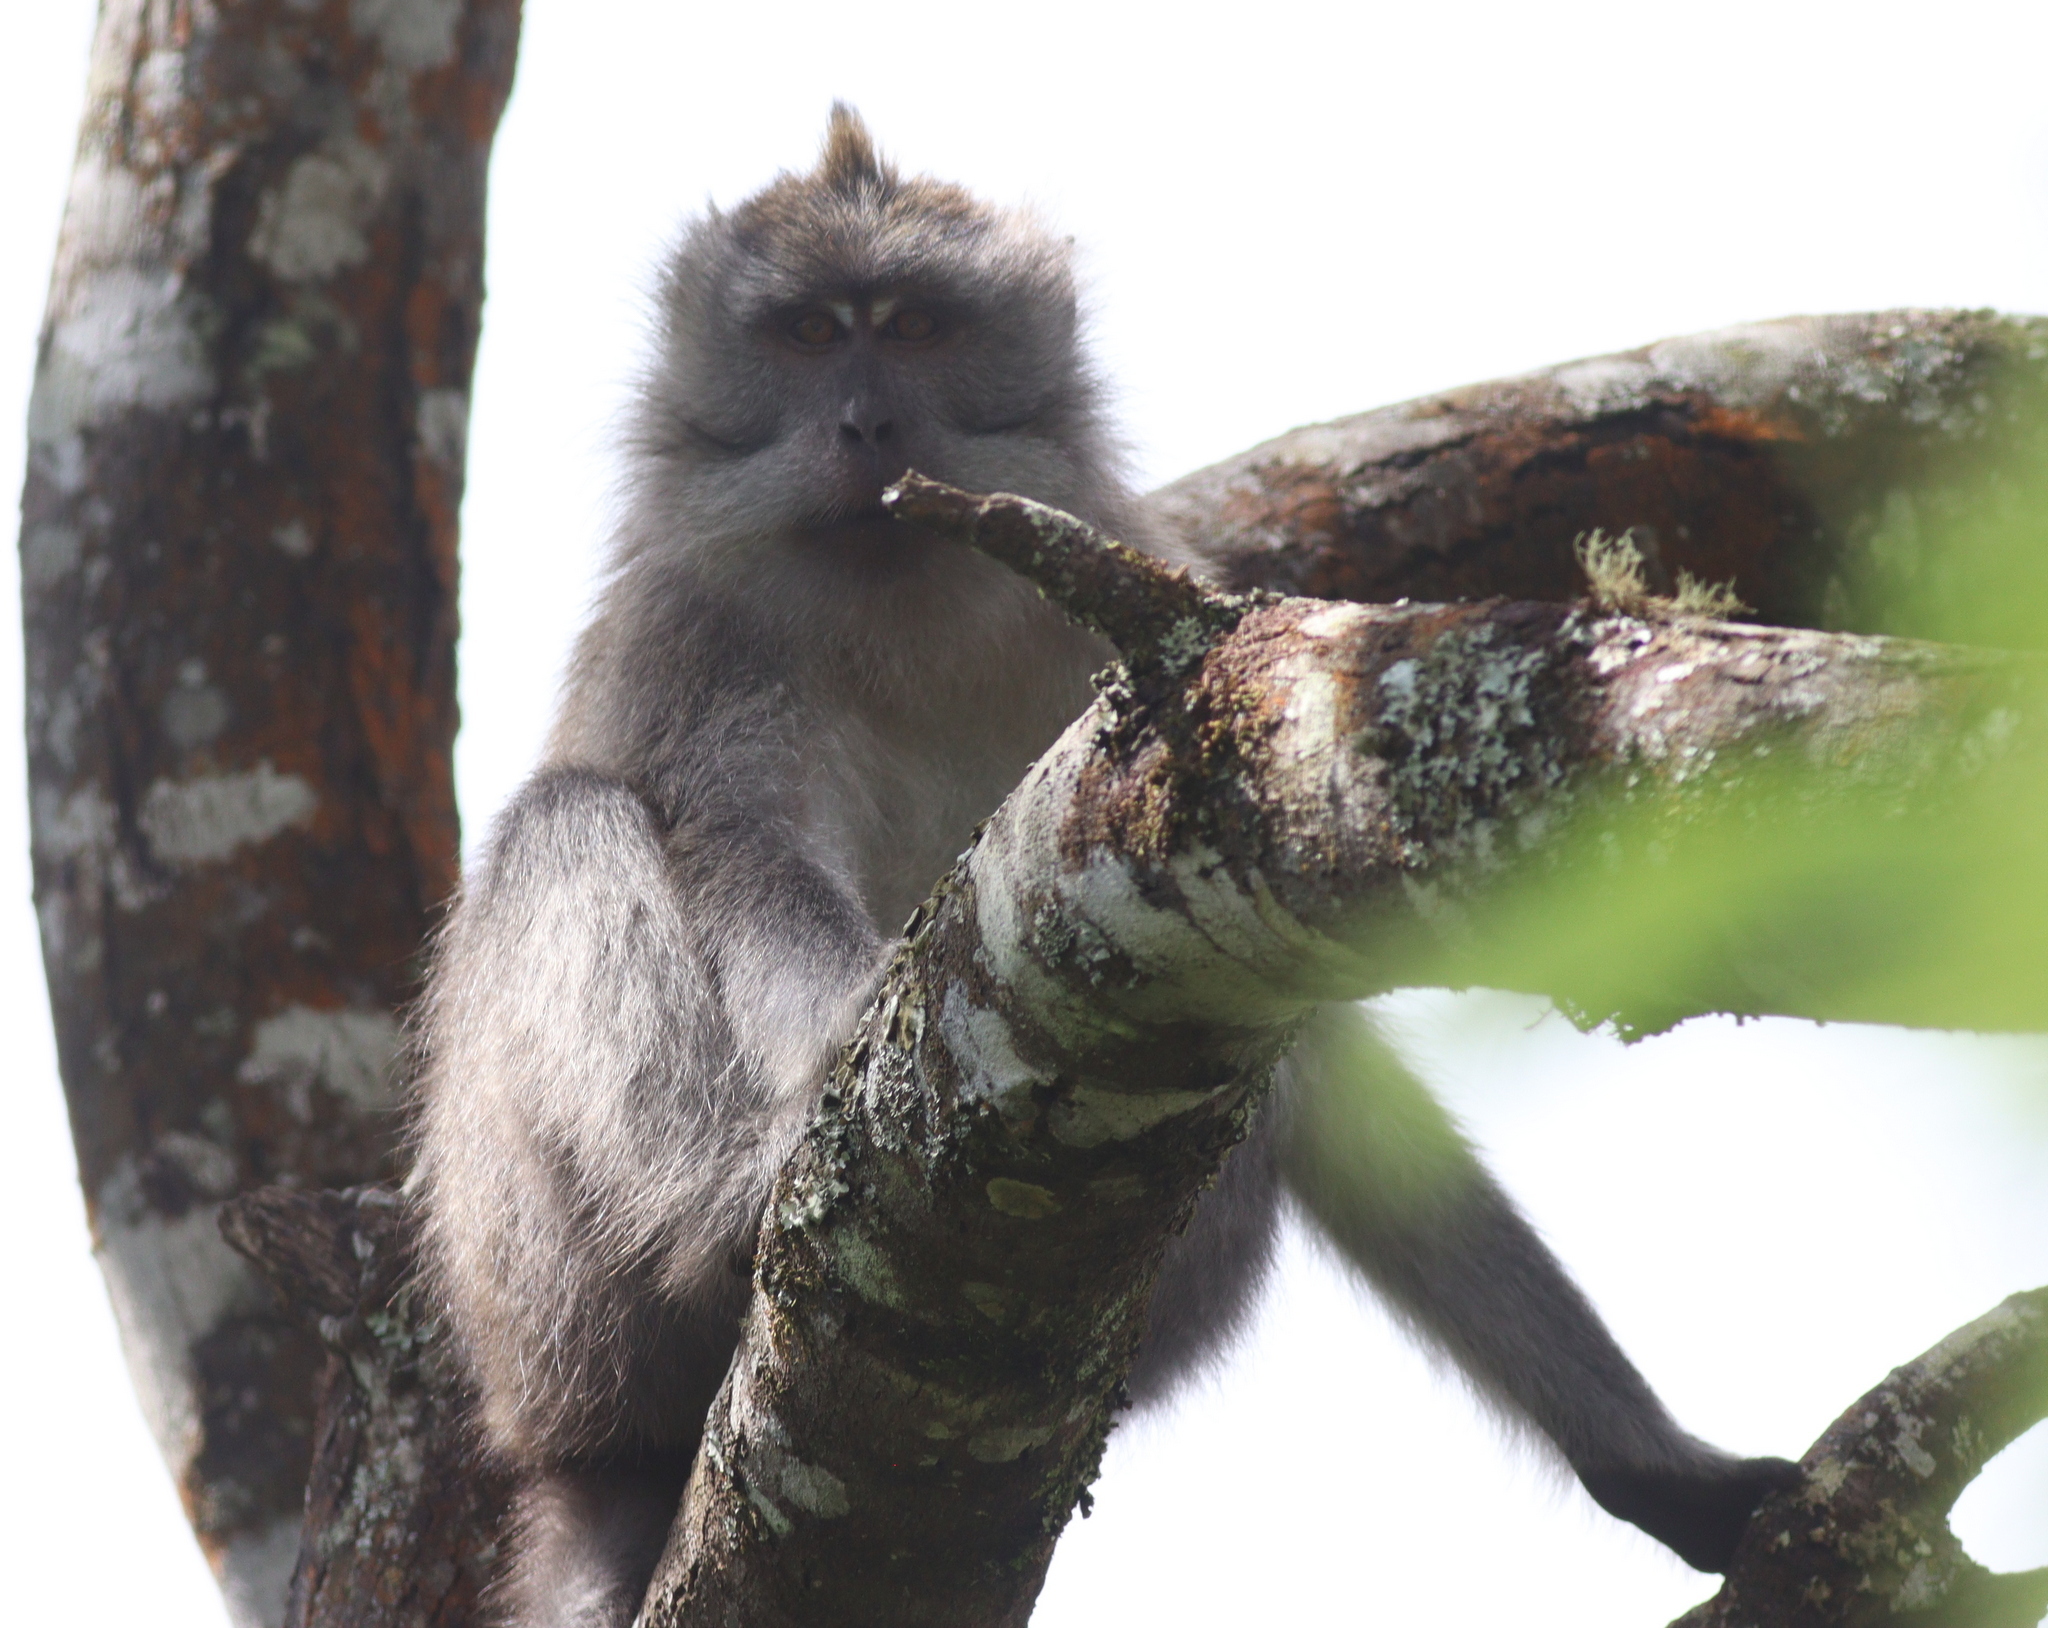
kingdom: Animalia
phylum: Chordata
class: Mammalia
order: Primates
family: Cercopithecidae
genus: Macaca
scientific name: Macaca fascicularis
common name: Crab-eating macaque
